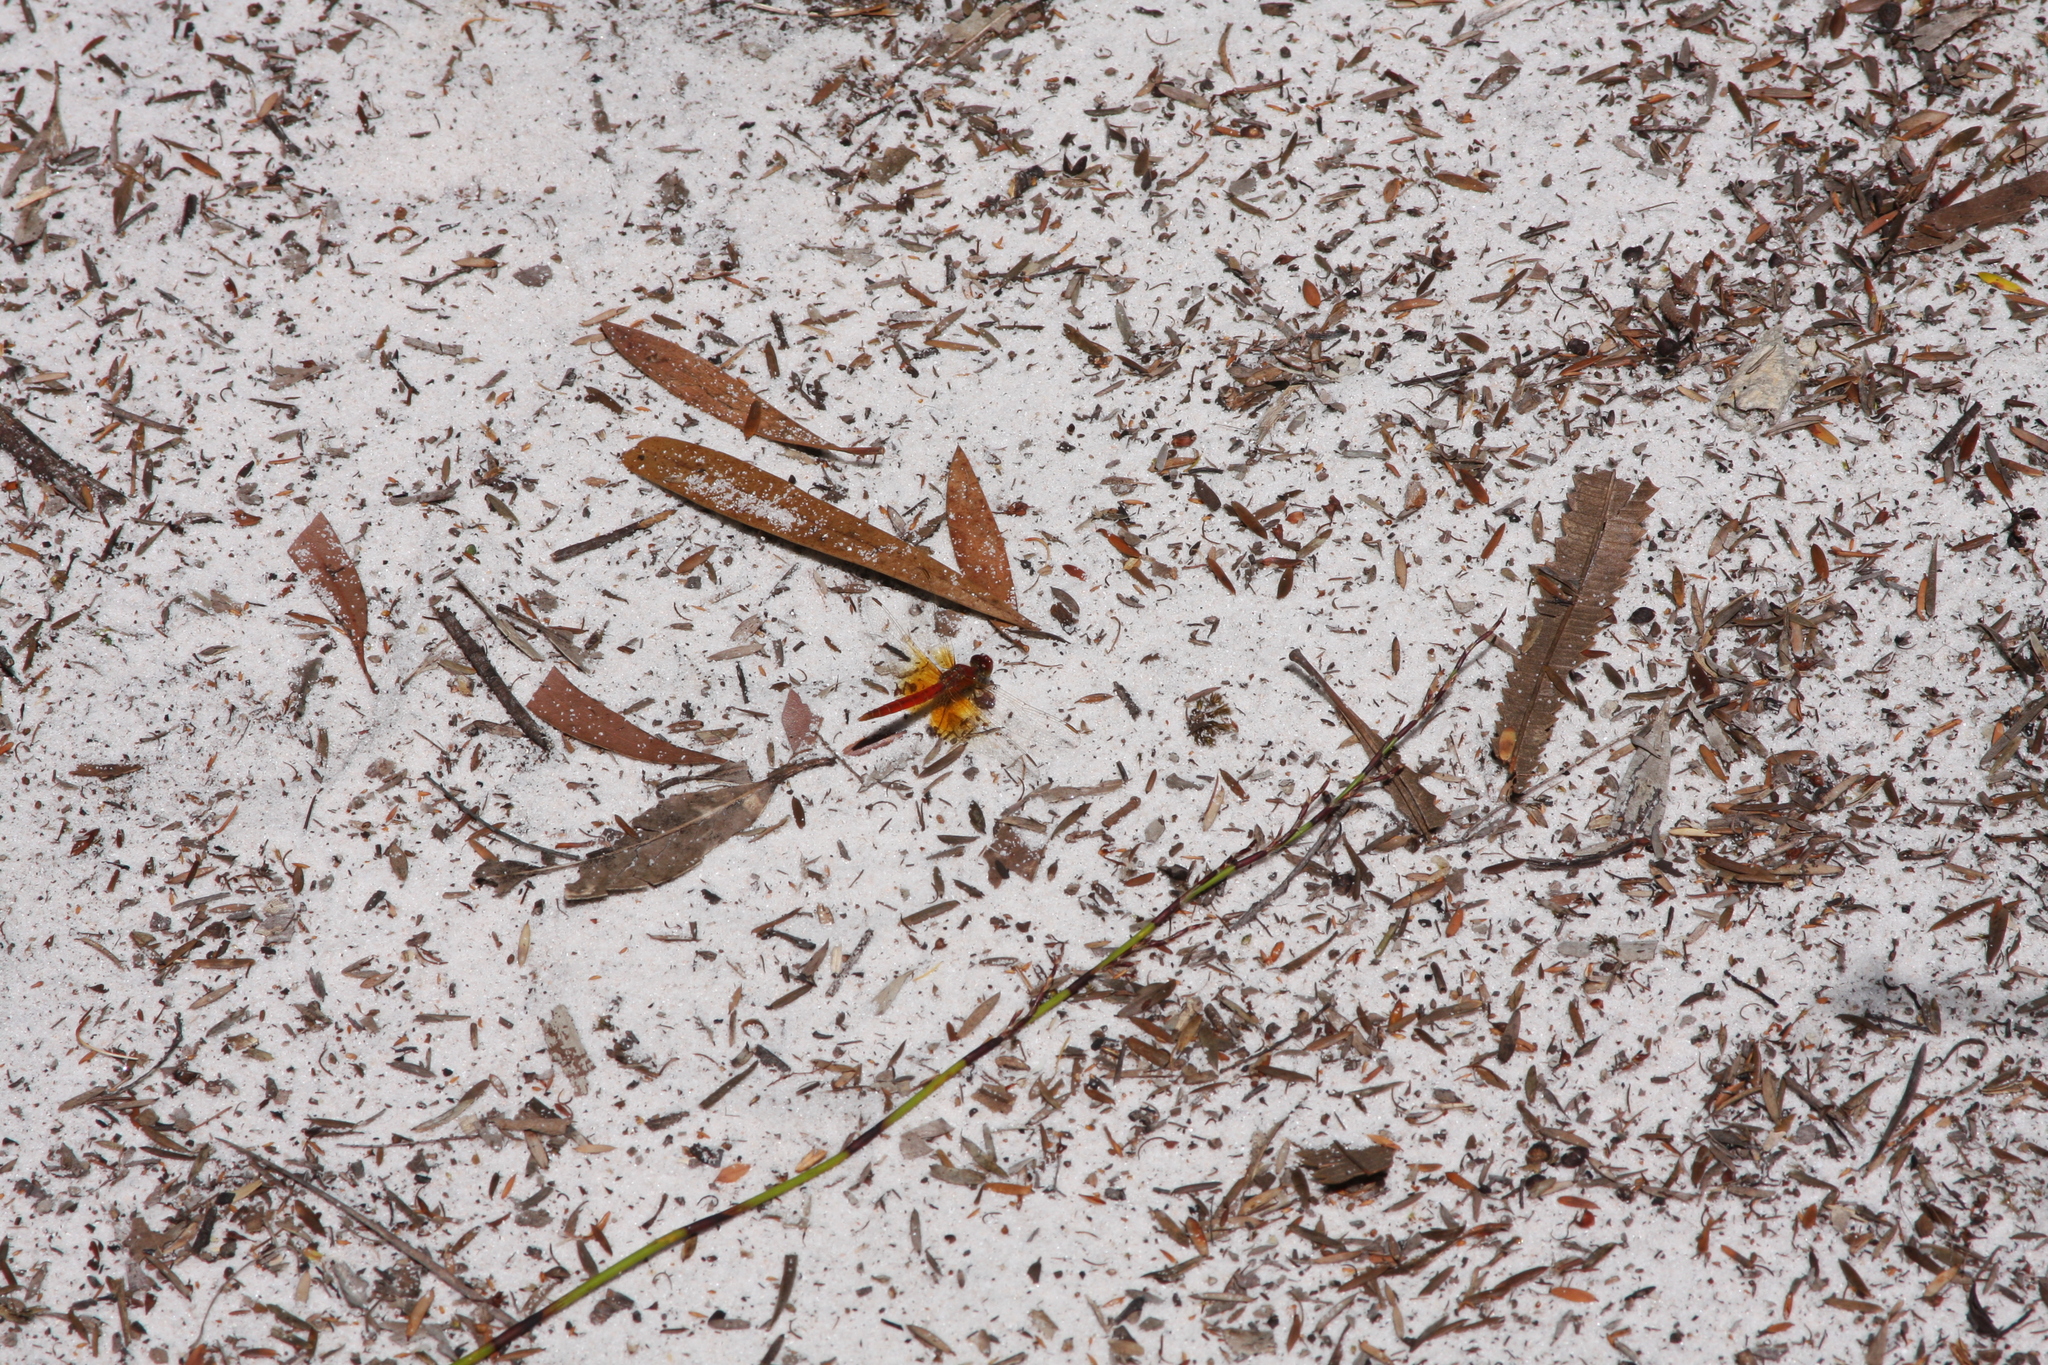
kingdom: Animalia
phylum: Arthropoda
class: Insecta
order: Odonata
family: Libellulidae
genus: Diplacodes
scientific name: Diplacodes haematodes
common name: Scarlet percher
